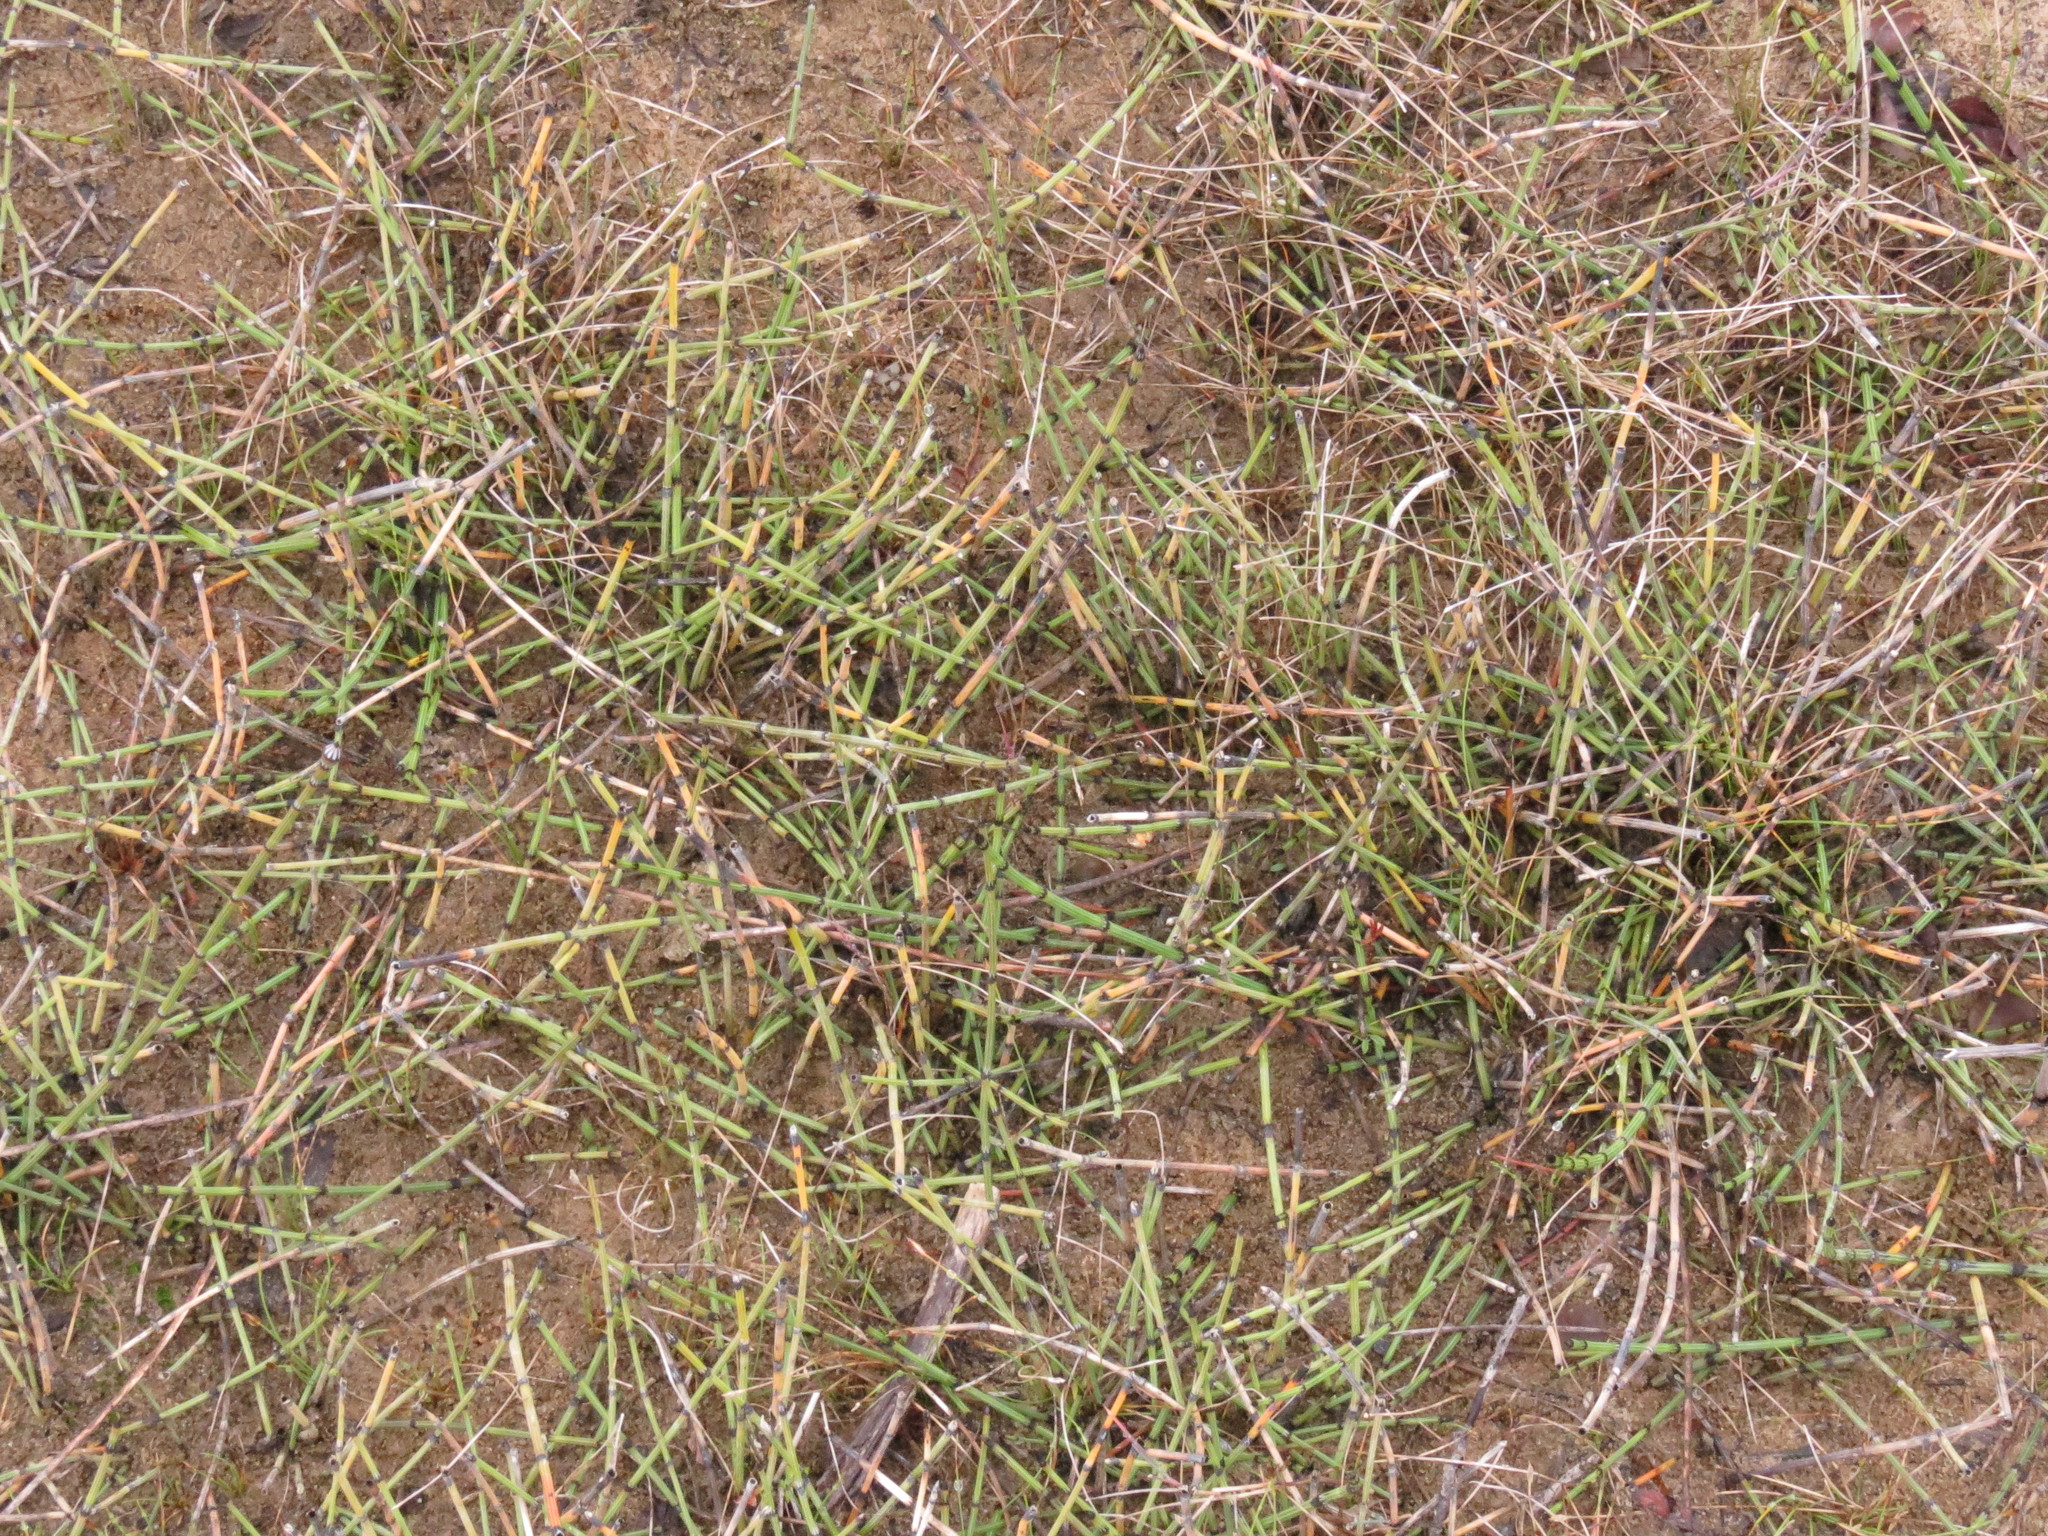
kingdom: Plantae
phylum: Tracheophyta
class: Polypodiopsida
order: Equisetales
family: Equisetaceae
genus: Equisetum
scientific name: Equisetum variegatum
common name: Variegated horsetail
